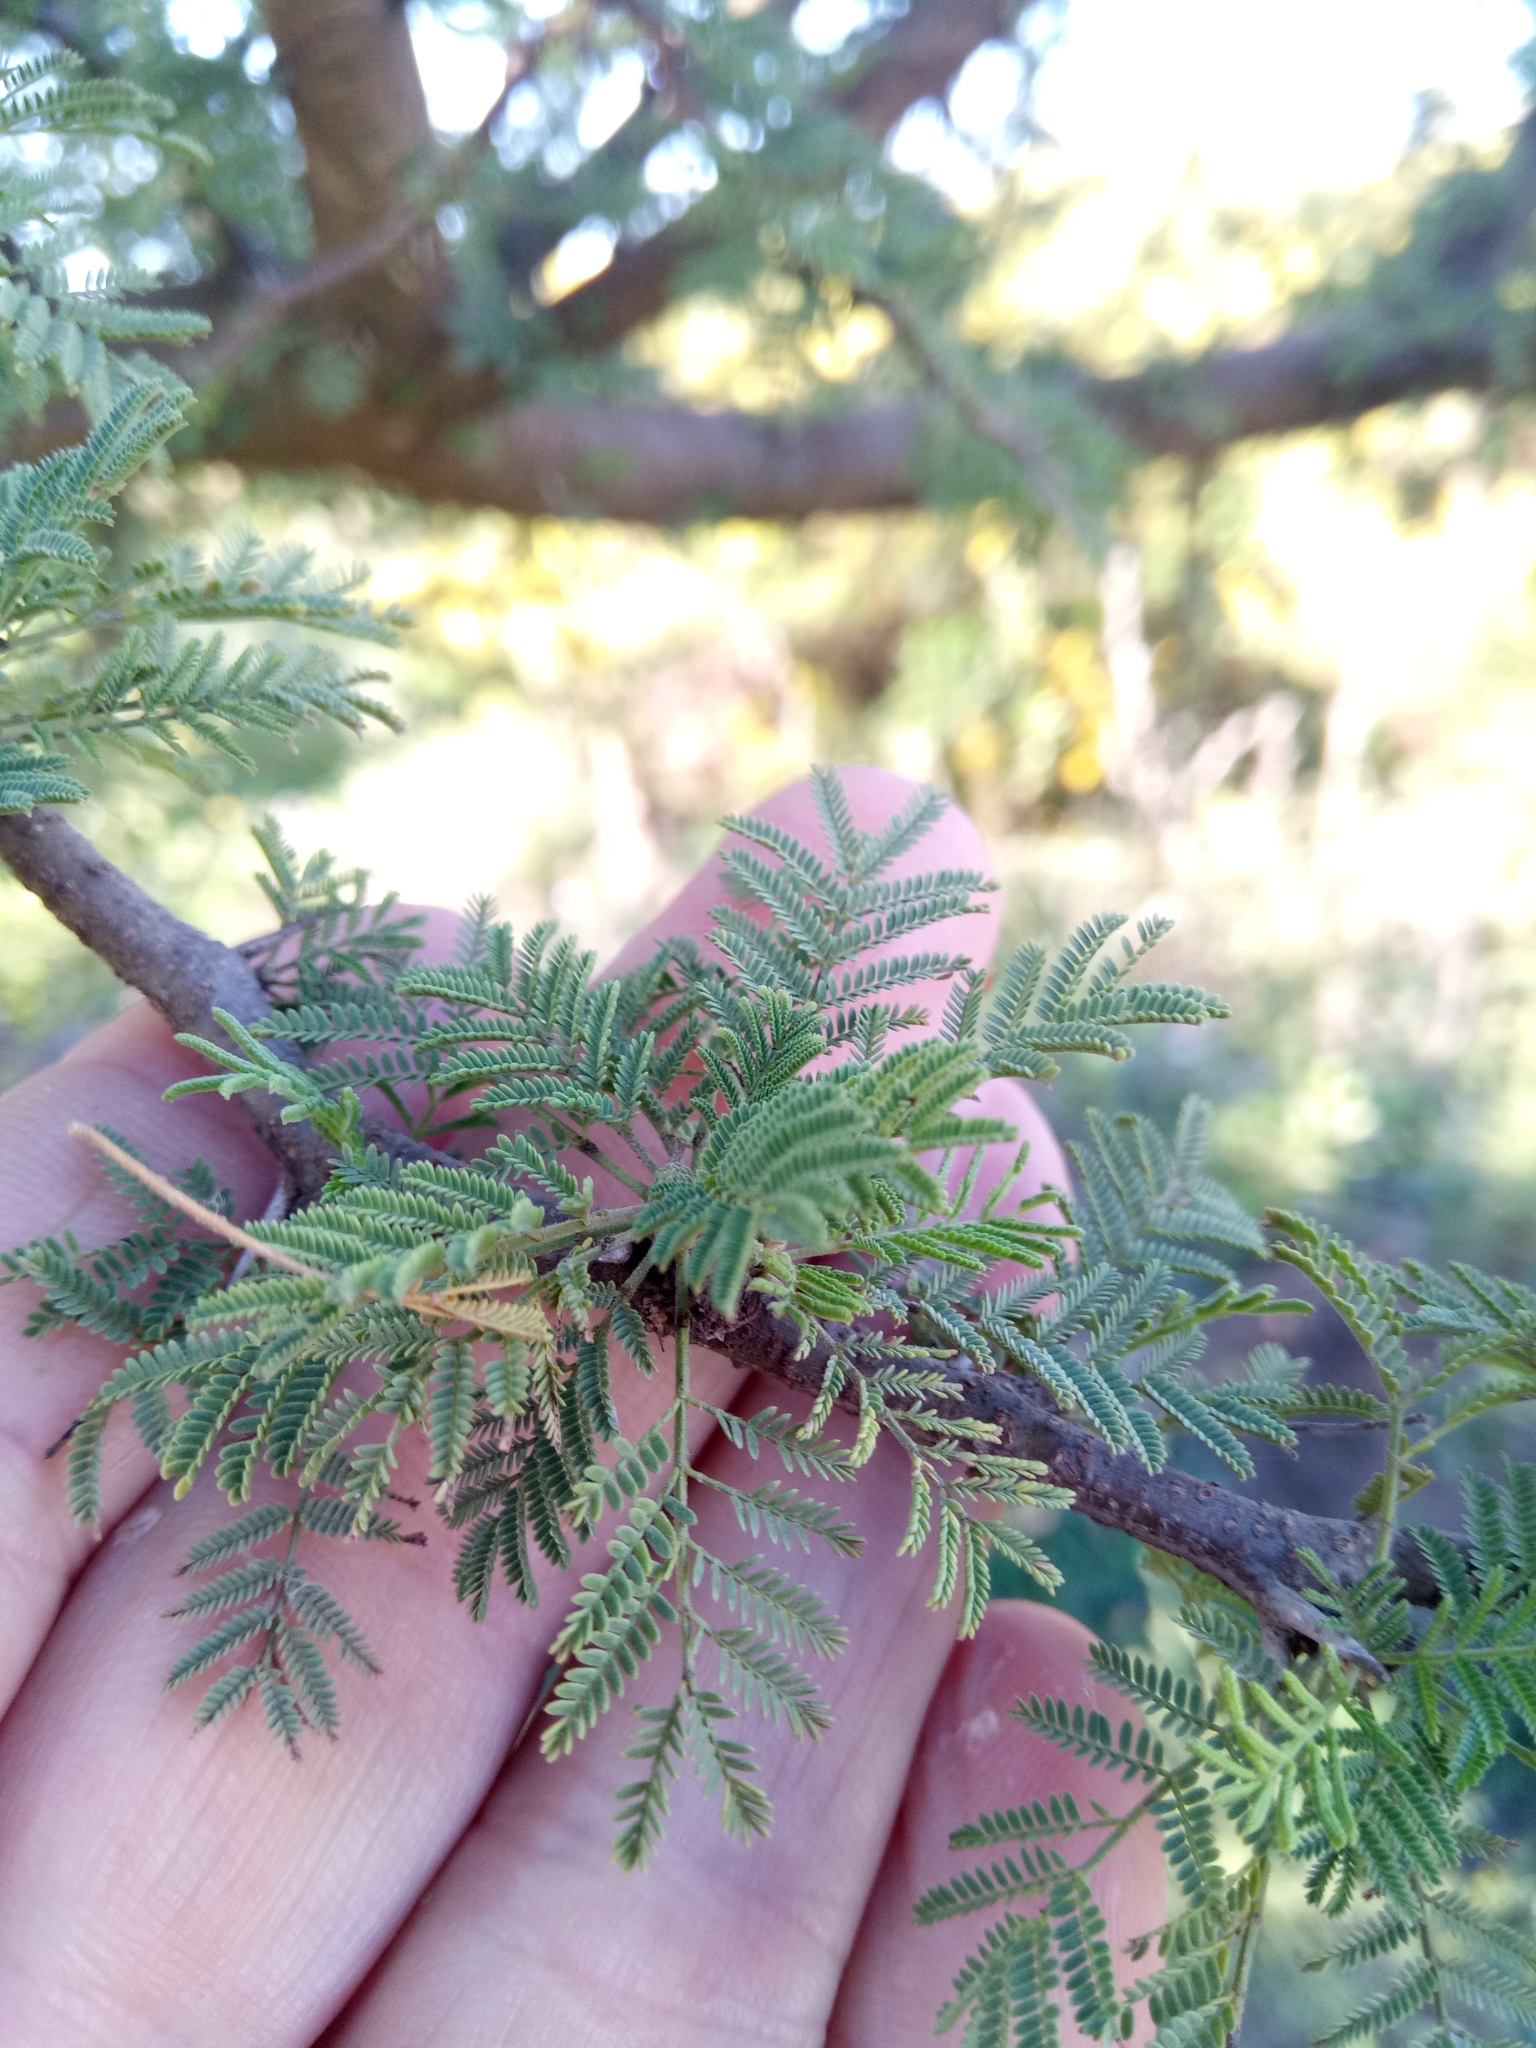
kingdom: Plantae
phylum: Tracheophyta
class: Magnoliopsida
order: Fabales
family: Fabaceae
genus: Vachellia
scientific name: Vachellia caven
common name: Roman cassie
